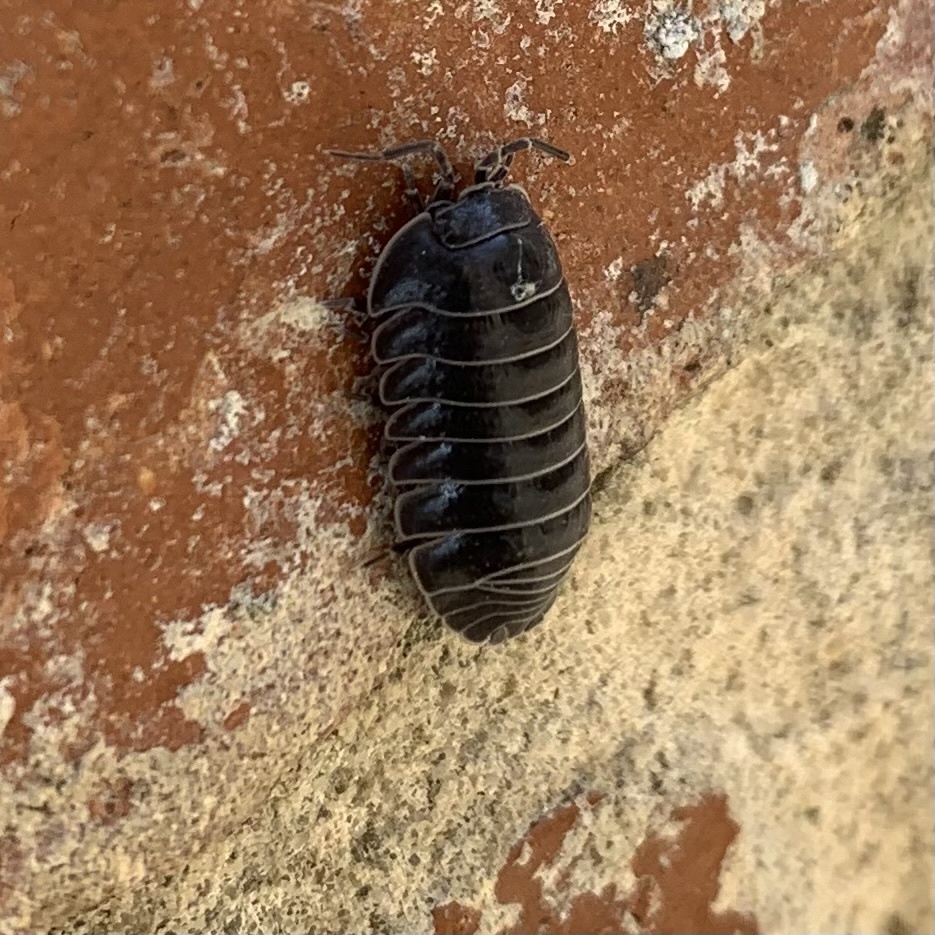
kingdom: Animalia
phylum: Arthropoda
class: Malacostraca
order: Isopoda
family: Armadillidiidae
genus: Armadillidium
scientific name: Armadillidium depressum
